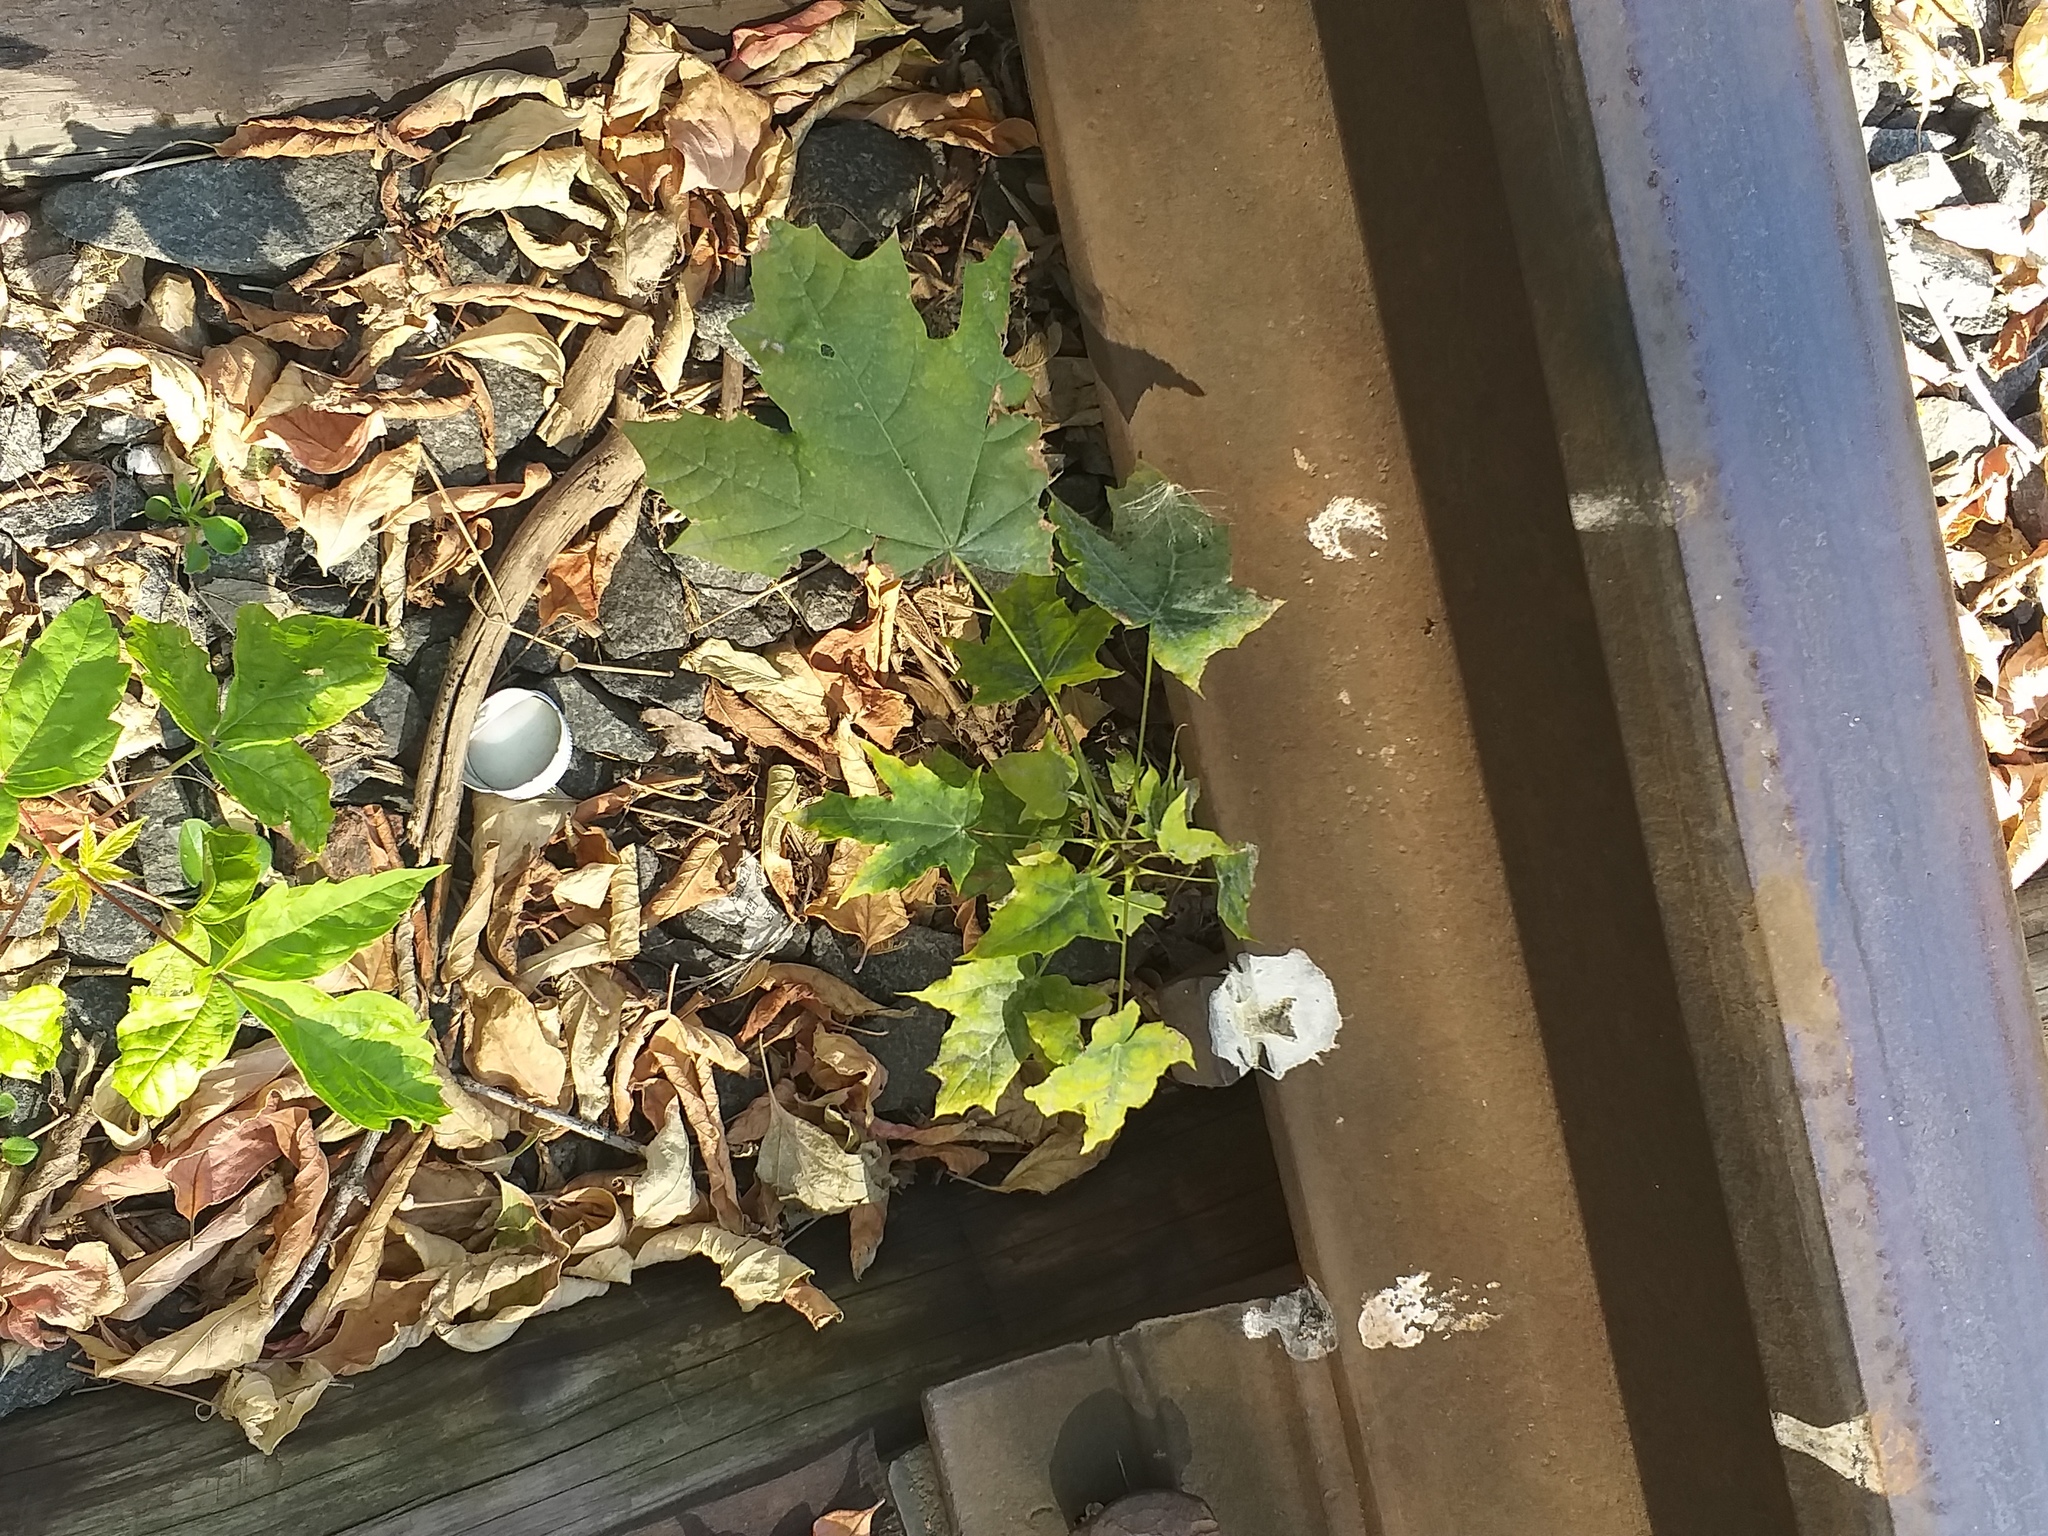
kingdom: Plantae
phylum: Tracheophyta
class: Magnoliopsida
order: Sapindales
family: Sapindaceae
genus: Acer
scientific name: Acer platanoides
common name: Norway maple
